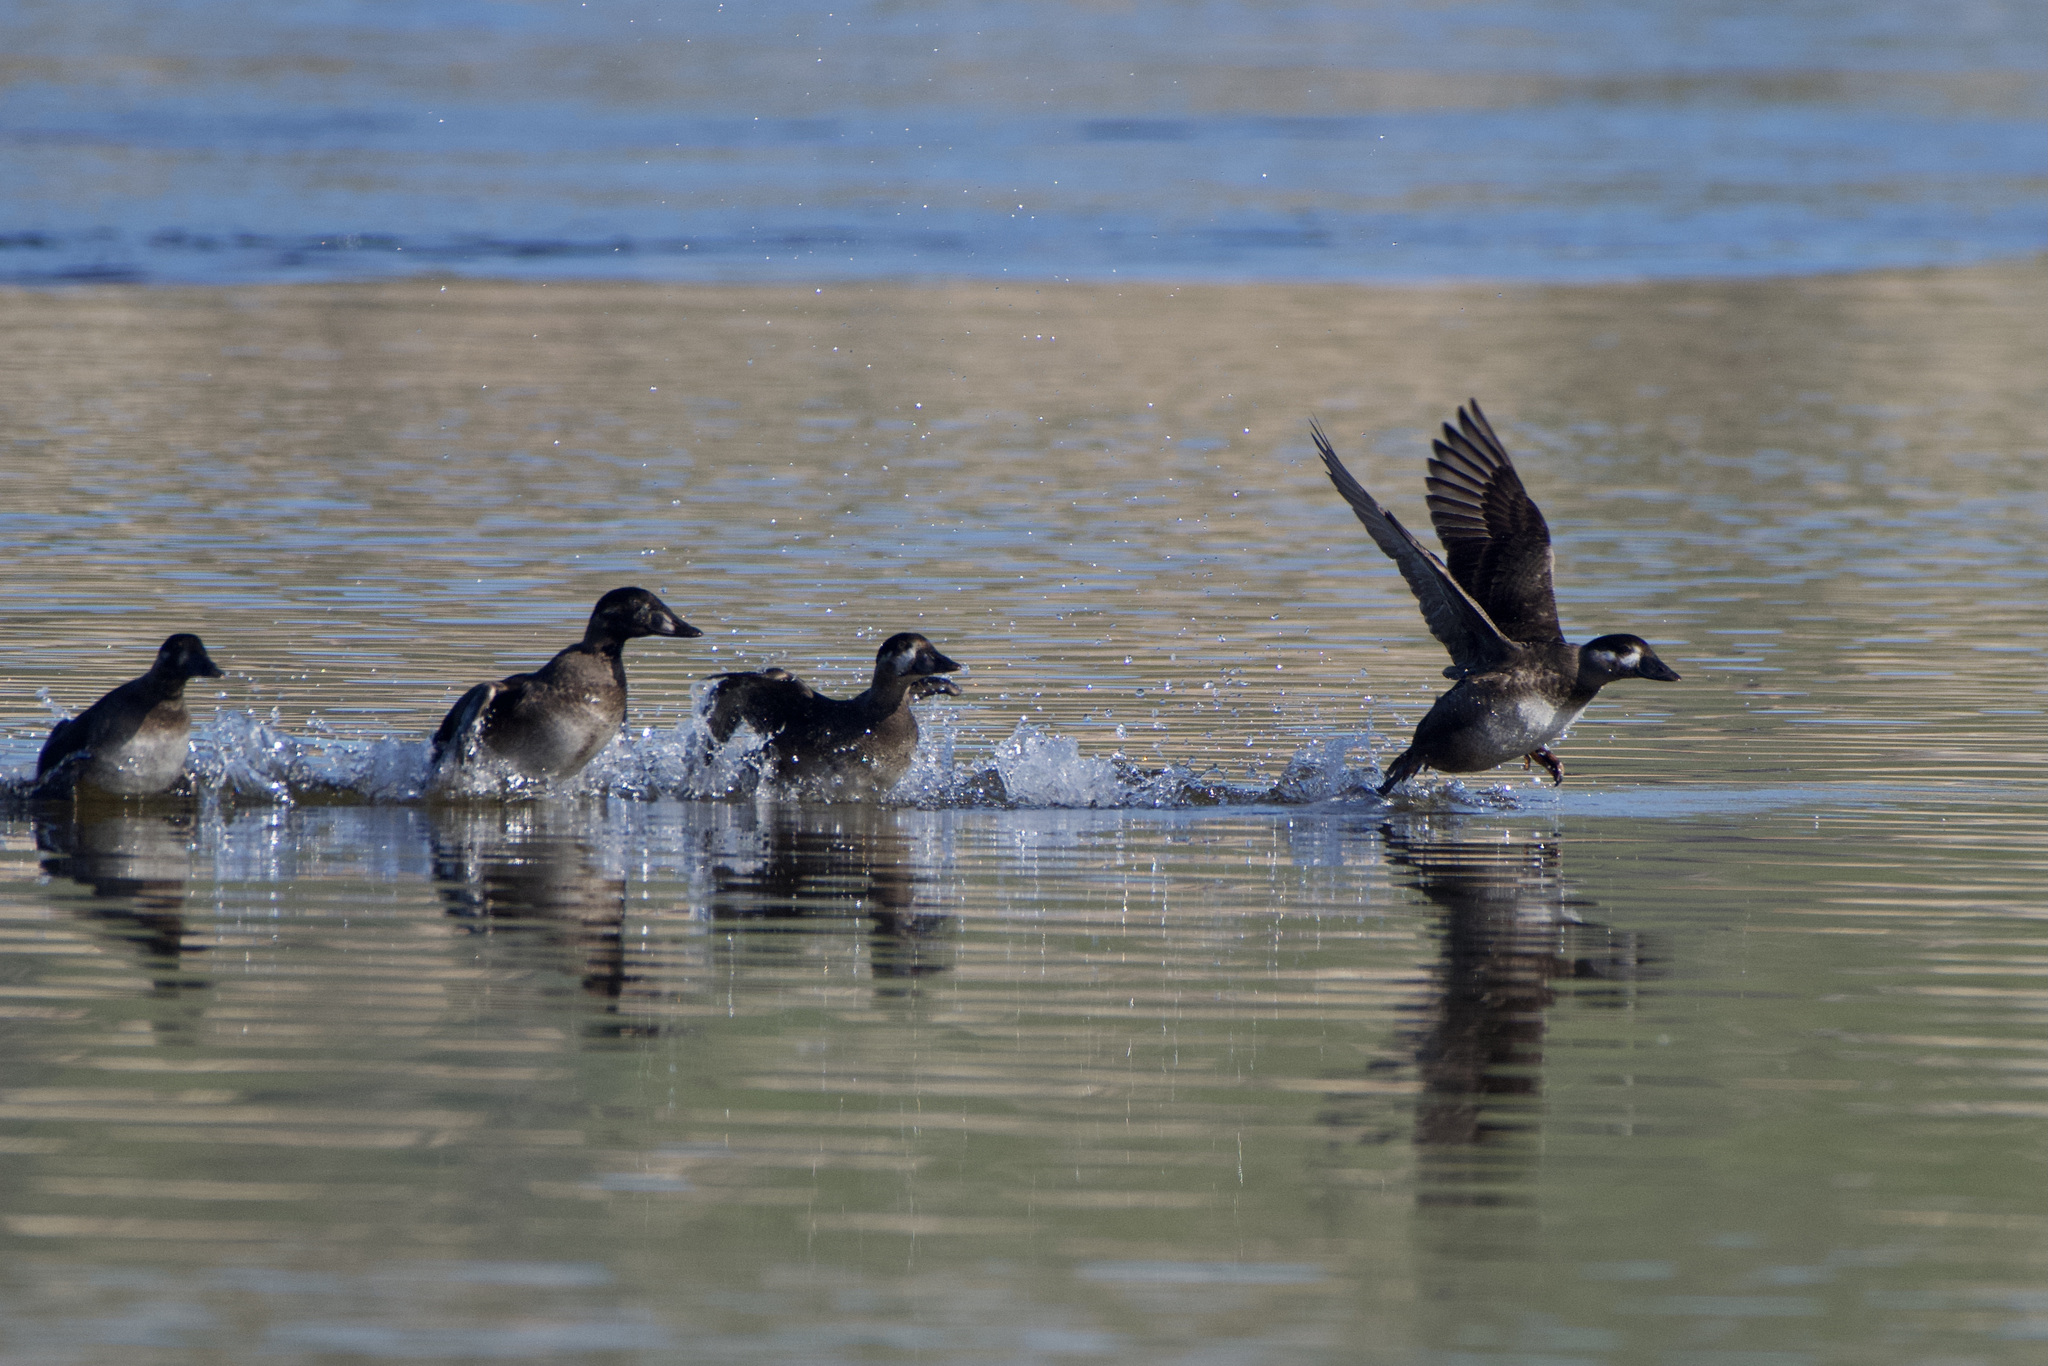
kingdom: Animalia
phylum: Chordata
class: Aves
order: Anseriformes
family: Anatidae
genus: Melanitta
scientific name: Melanitta perspicillata
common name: Surf scoter
